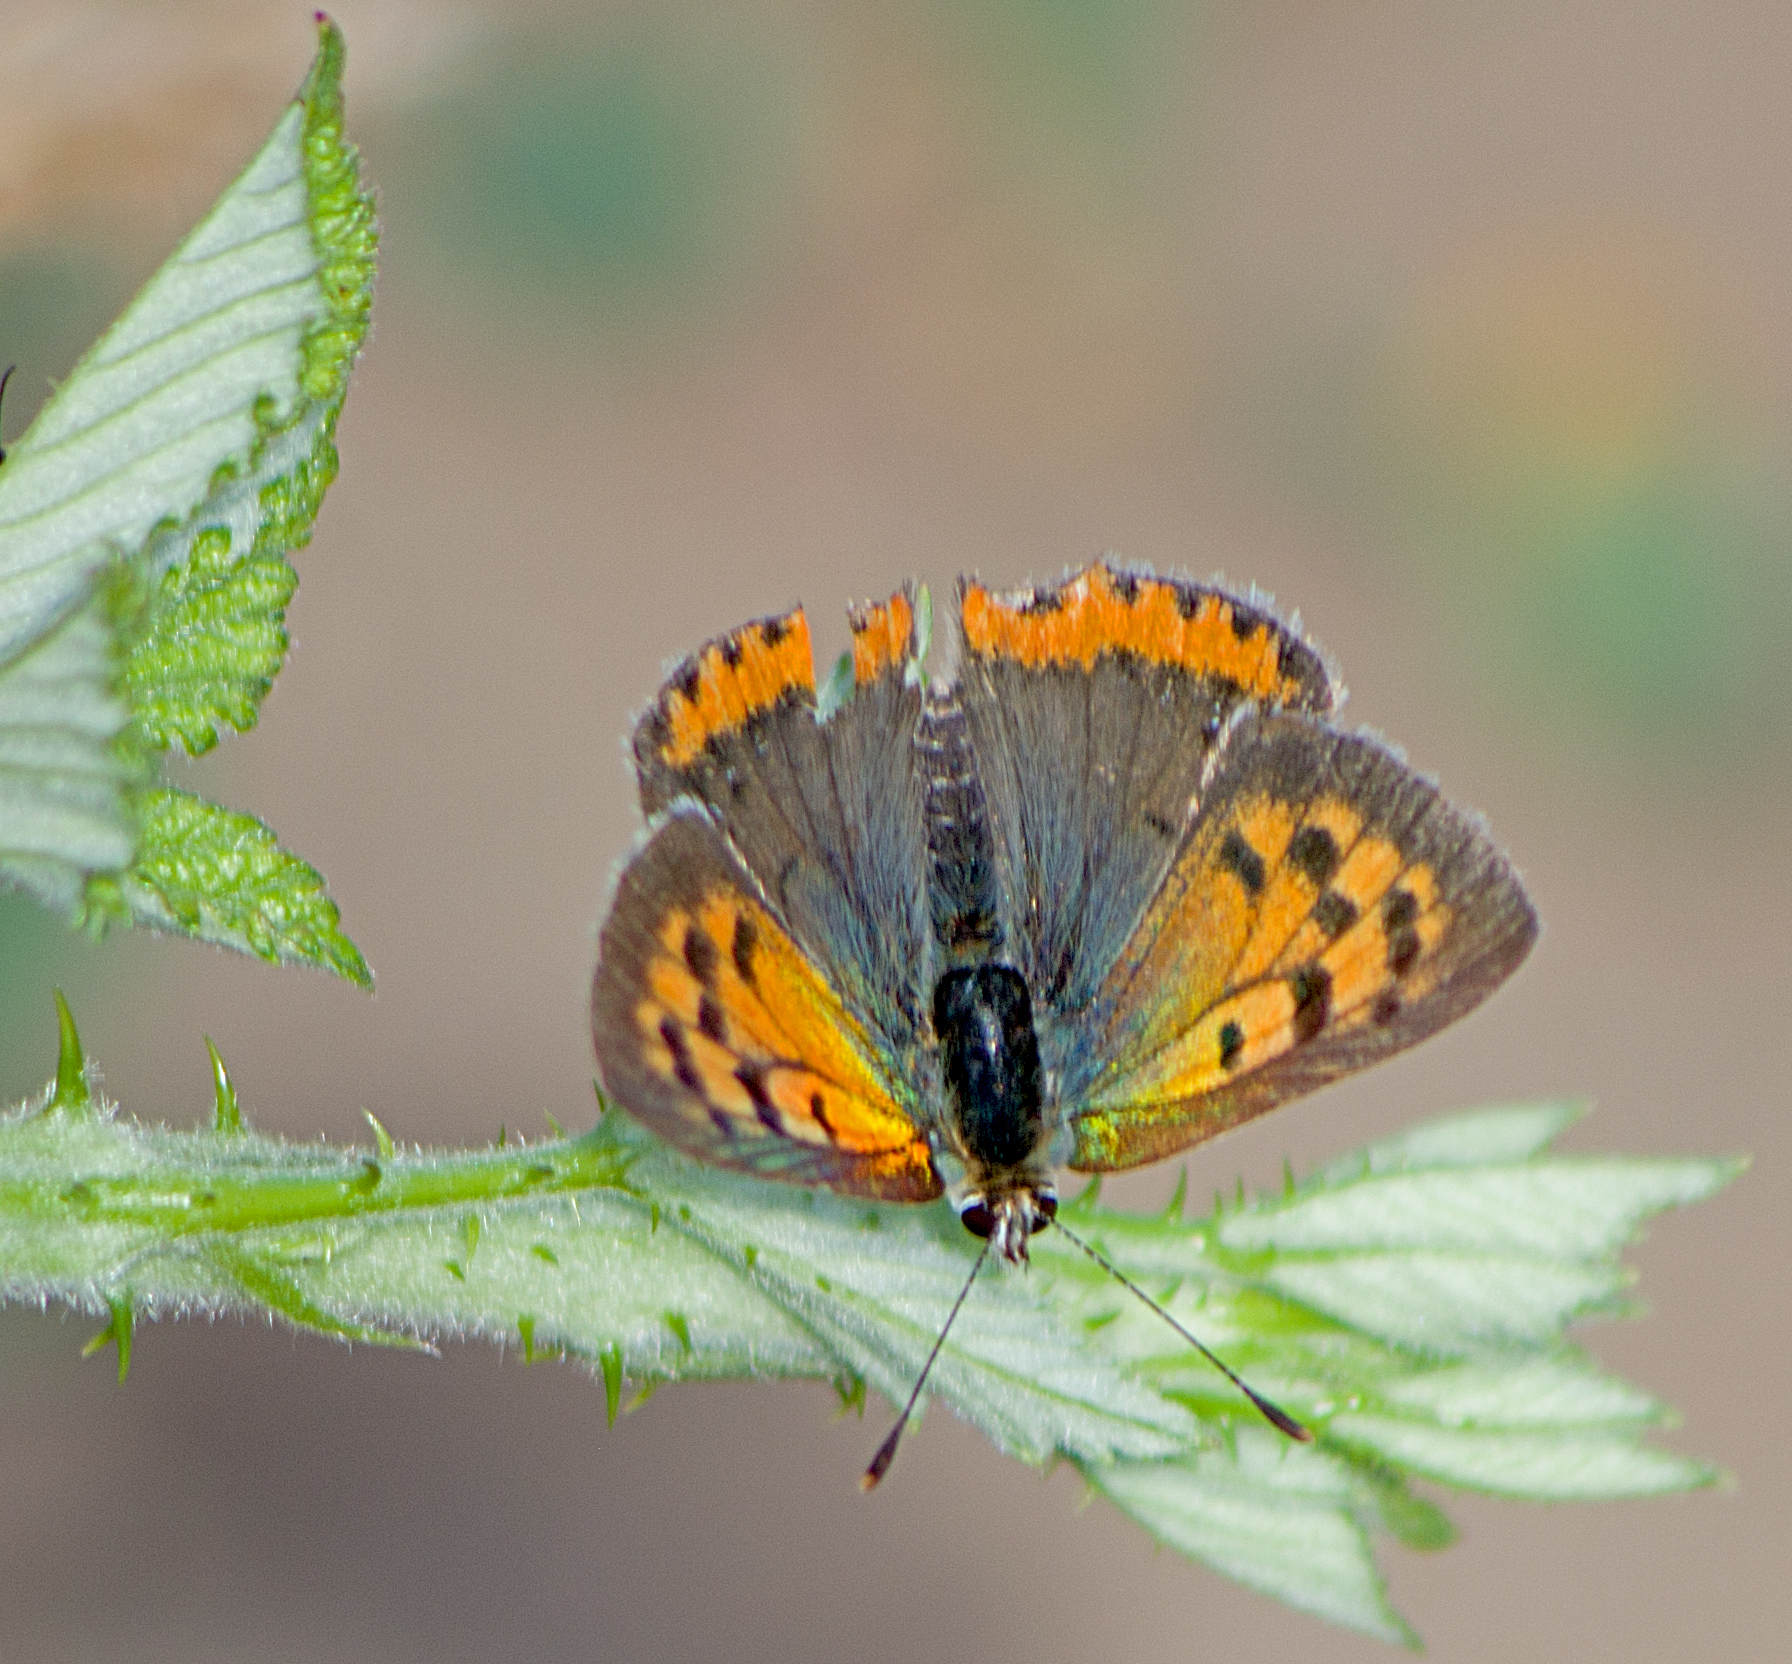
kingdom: Animalia
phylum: Arthropoda
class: Insecta
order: Lepidoptera
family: Lycaenidae
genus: Lycaena
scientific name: Lycaena phlaeas
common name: Small copper
